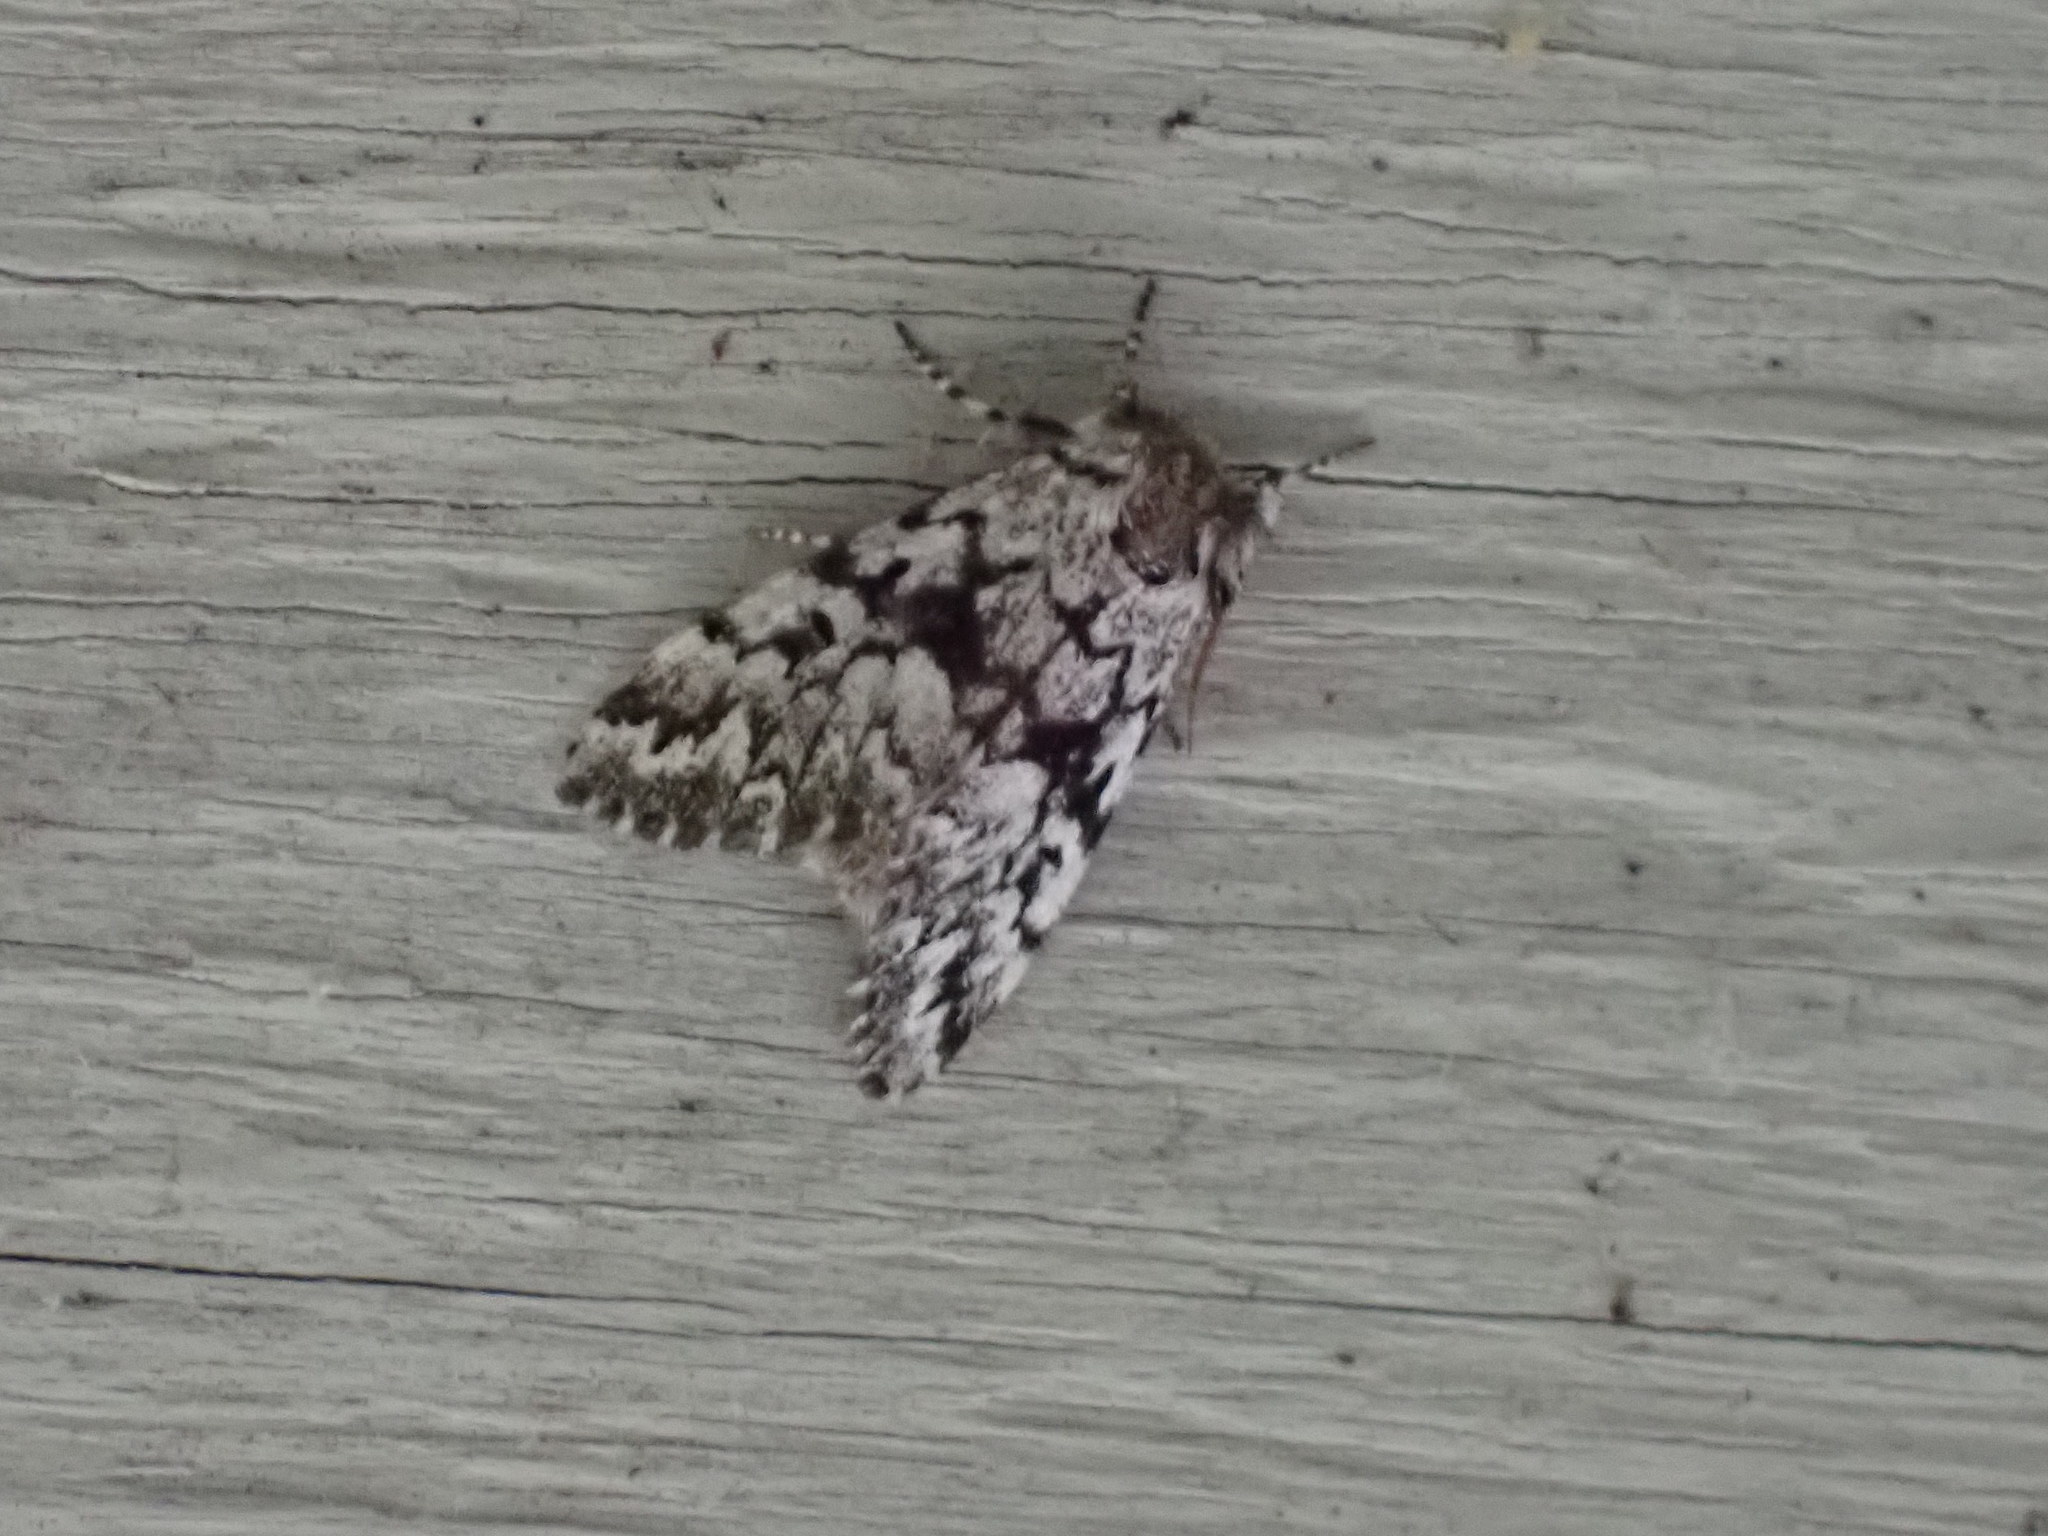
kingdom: Animalia
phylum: Arthropoda
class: Insecta
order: Lepidoptera
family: Noctuidae
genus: Panthea
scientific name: Panthea acronyctoides
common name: Black zigzag moth
